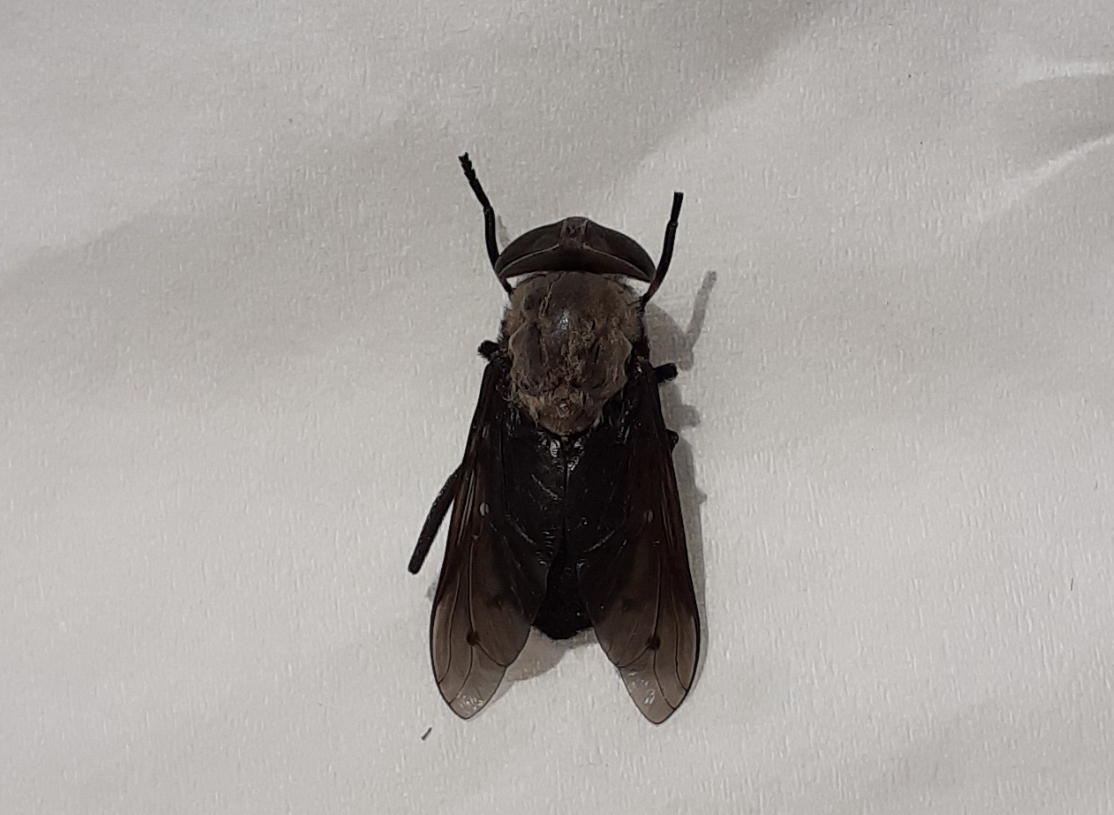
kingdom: Animalia
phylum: Arthropoda
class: Insecta
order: Diptera
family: Tabanidae
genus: Tabanus
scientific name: Tabanus punctifer
